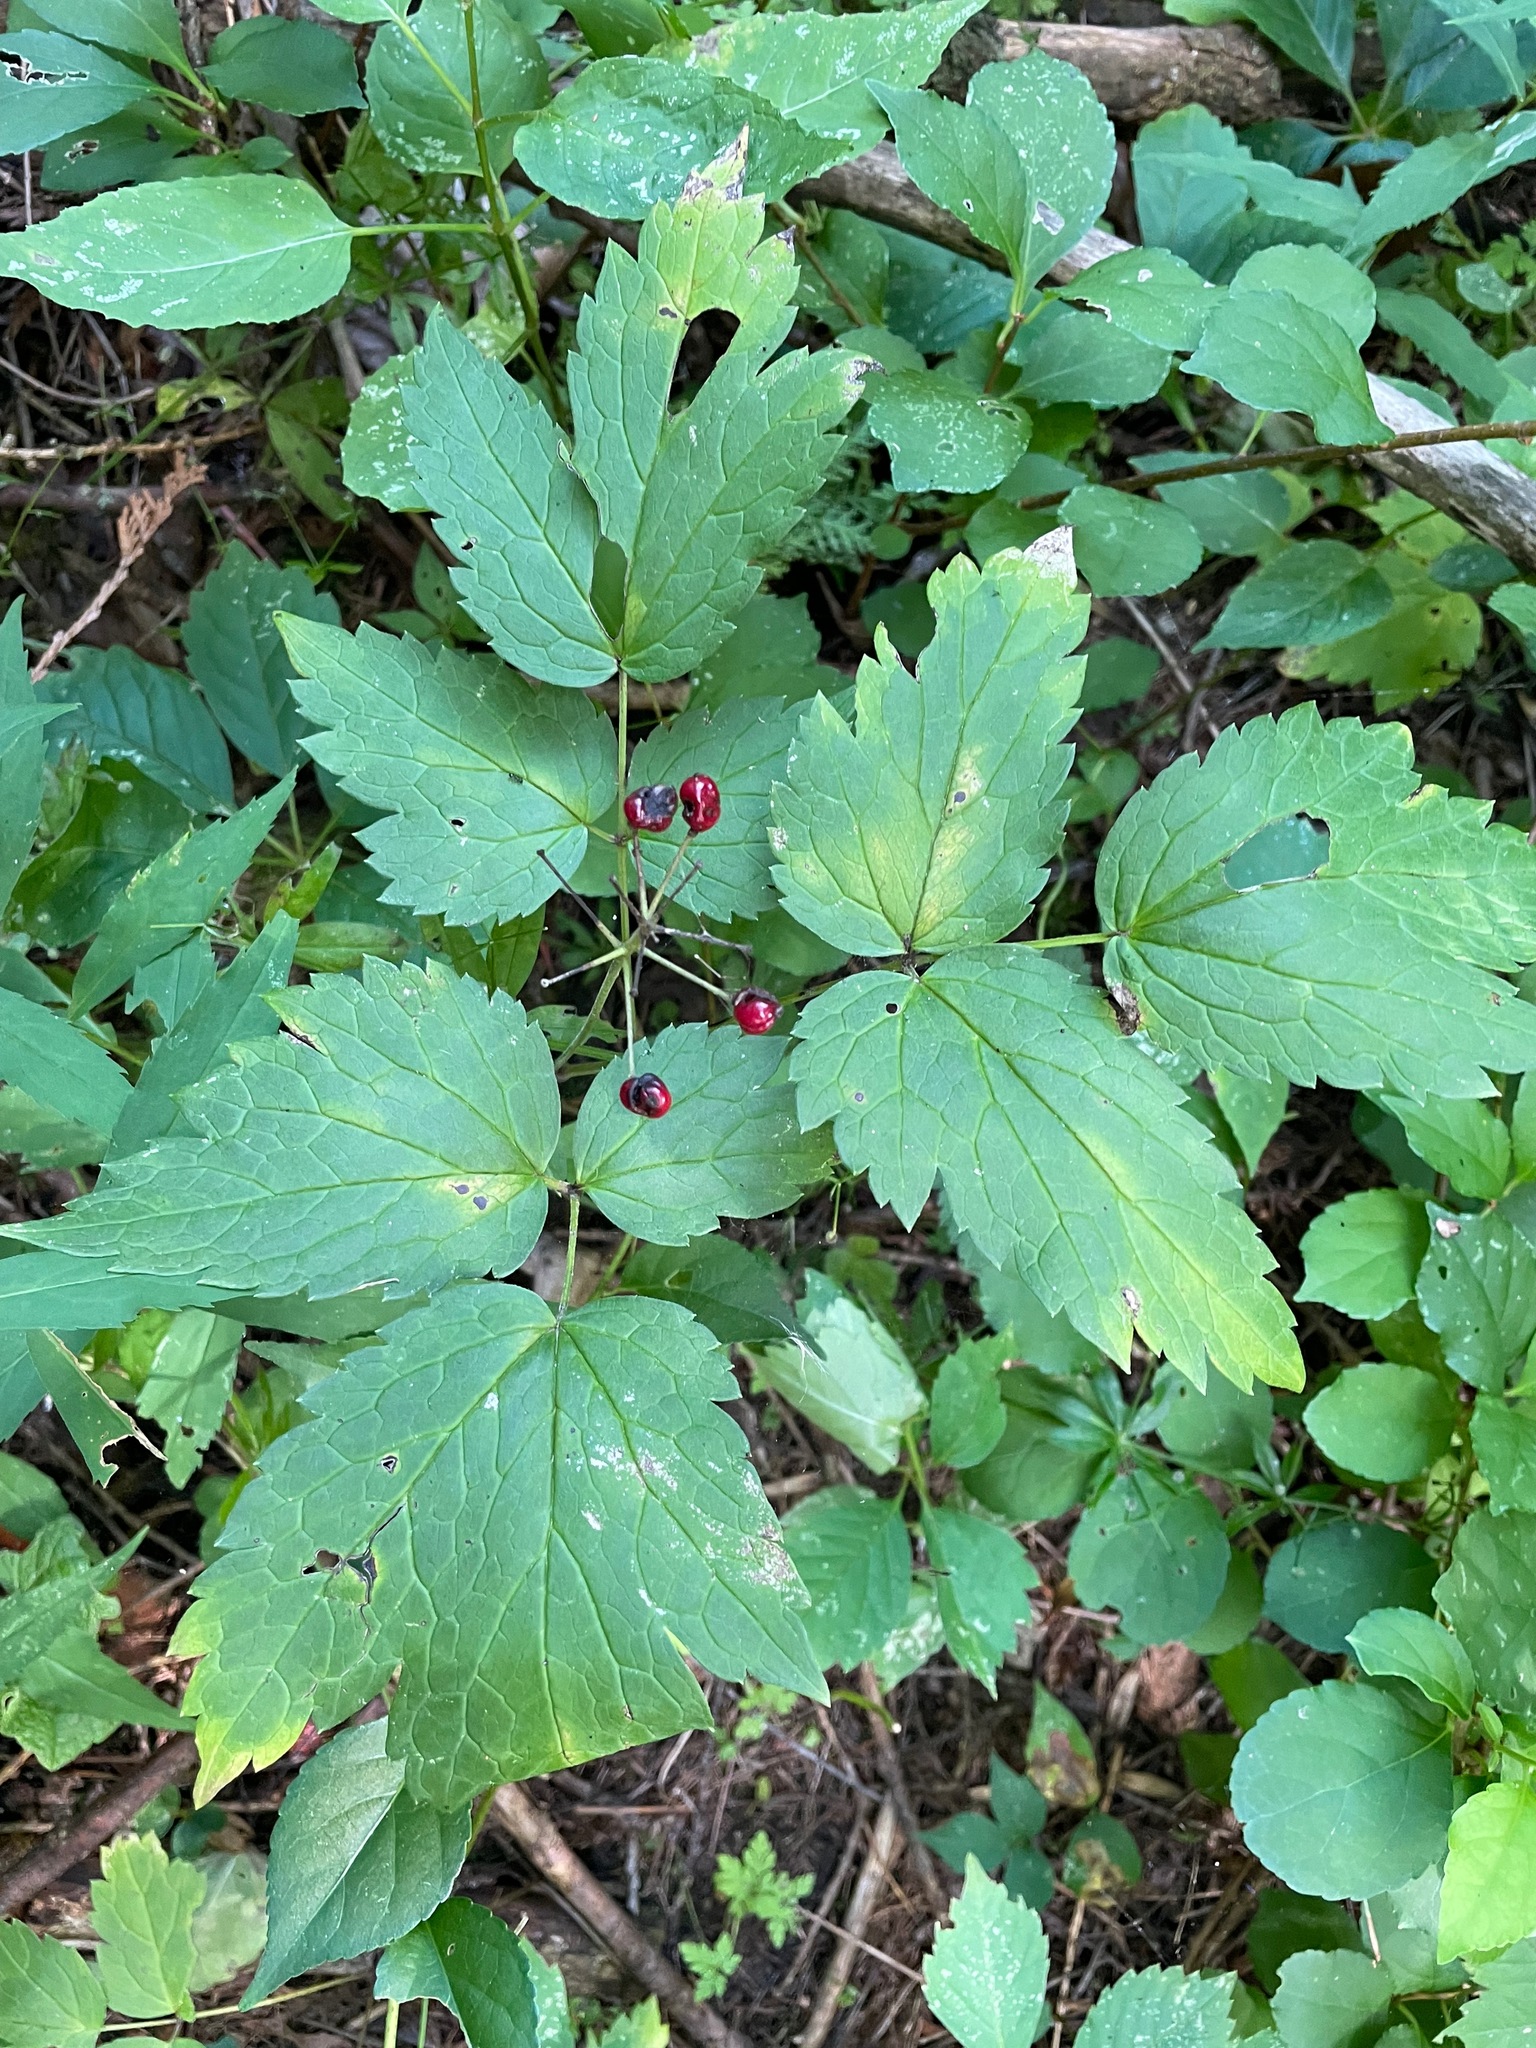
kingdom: Plantae
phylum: Tracheophyta
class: Magnoliopsida
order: Ranunculales
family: Ranunculaceae
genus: Actaea
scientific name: Actaea rubra
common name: Red baneberry
